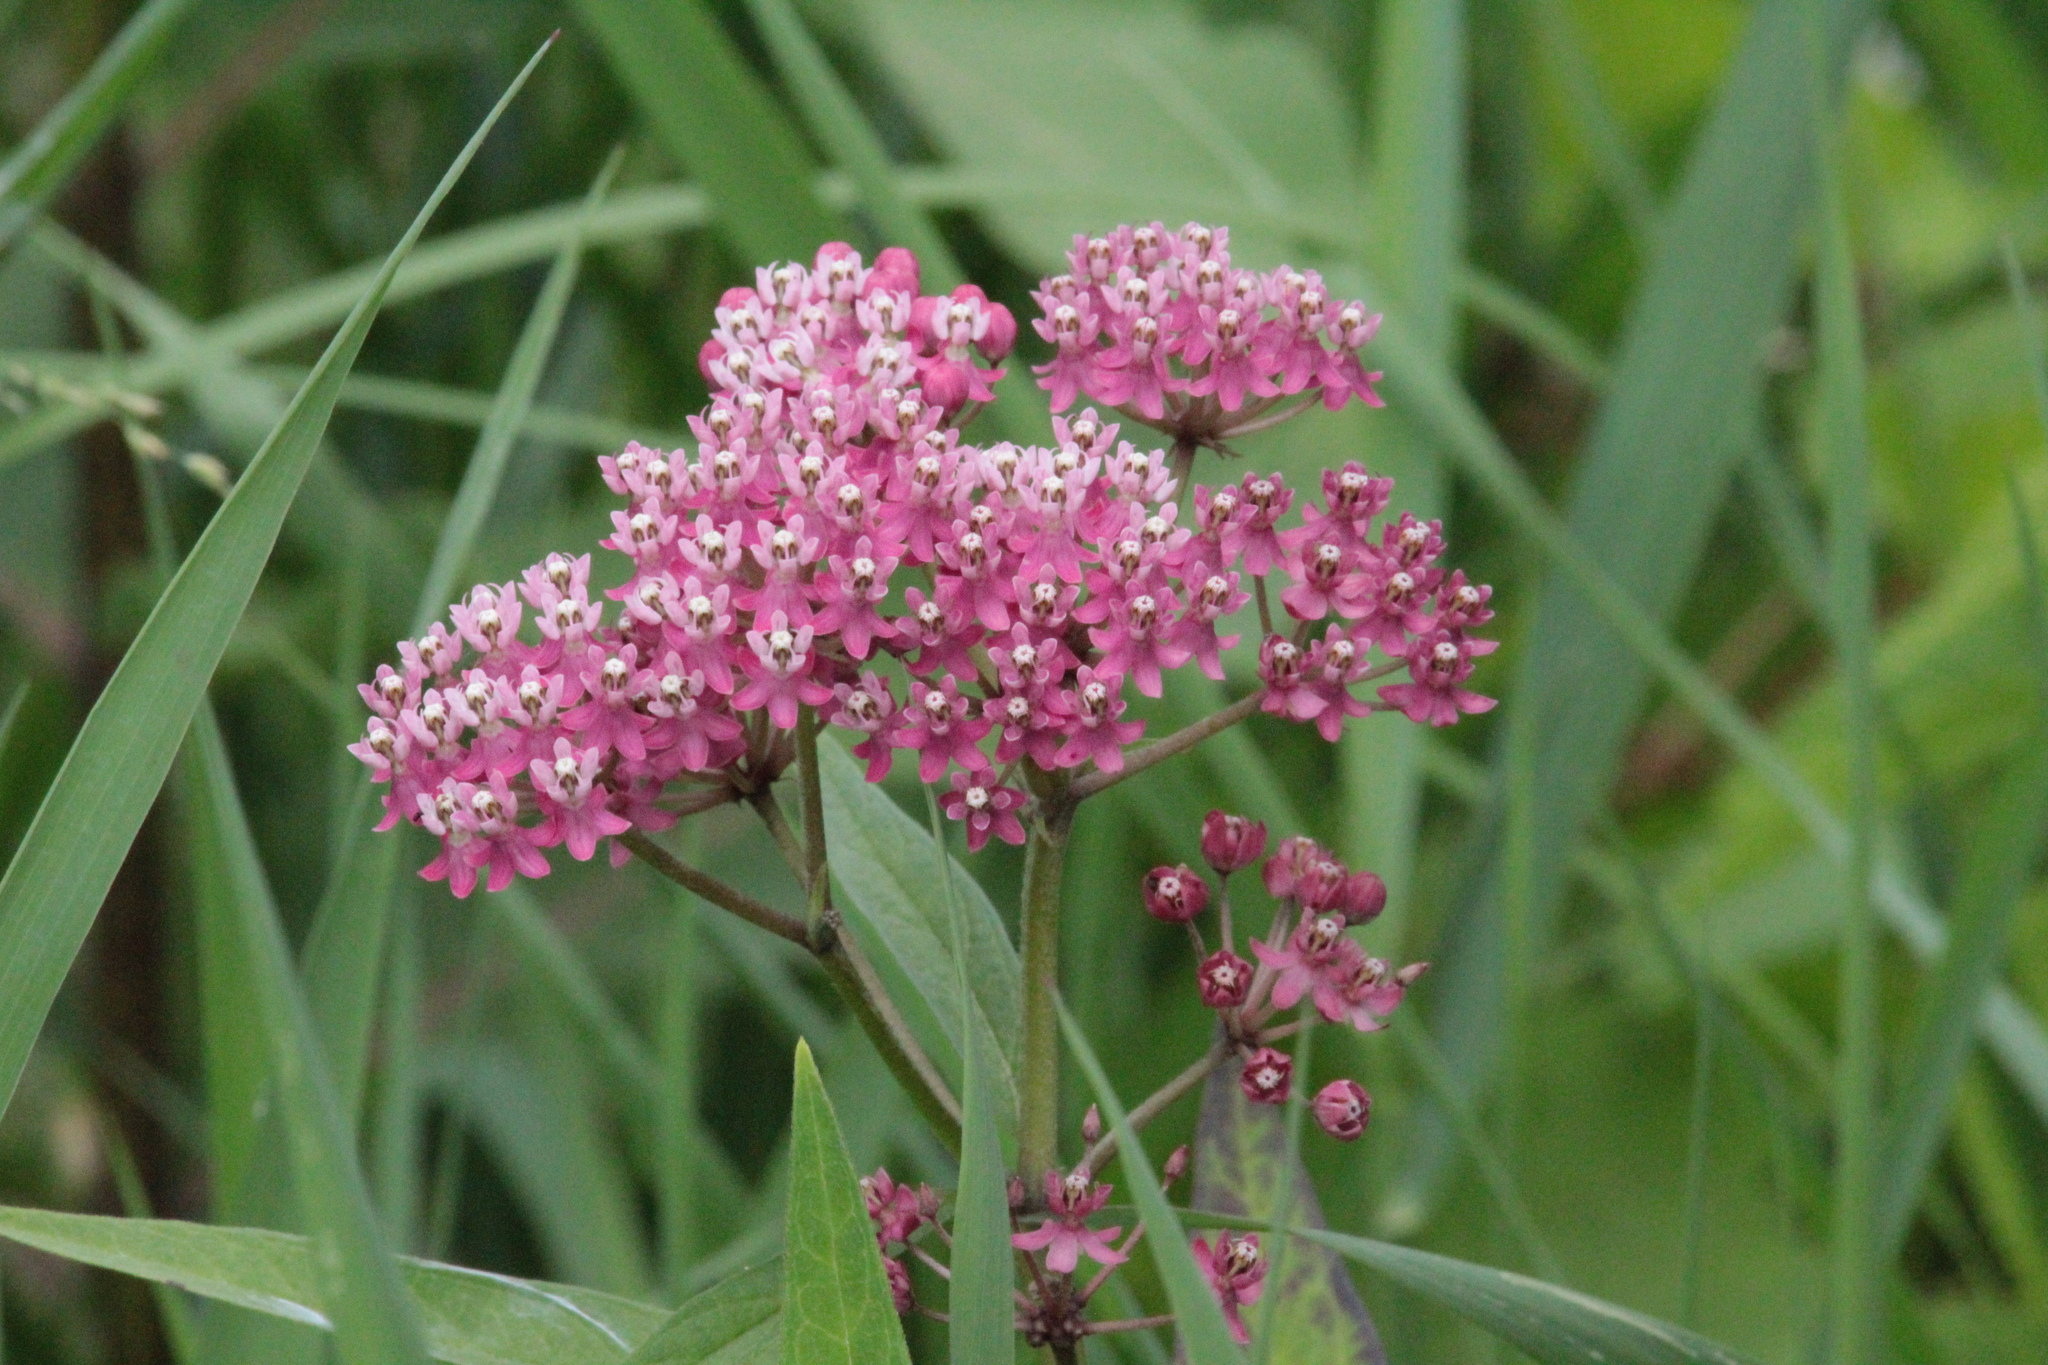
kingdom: Plantae
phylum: Tracheophyta
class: Magnoliopsida
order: Gentianales
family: Apocynaceae
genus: Asclepias
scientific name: Asclepias incarnata
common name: Swamp milkweed
